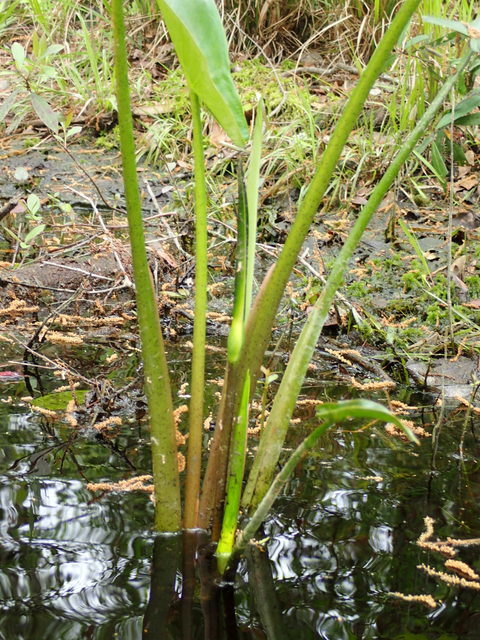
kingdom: Plantae
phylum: Tracheophyta
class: Liliopsida
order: Alismatales
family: Araceae
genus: Peltandra
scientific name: Peltandra virginica
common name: Arrow arum
